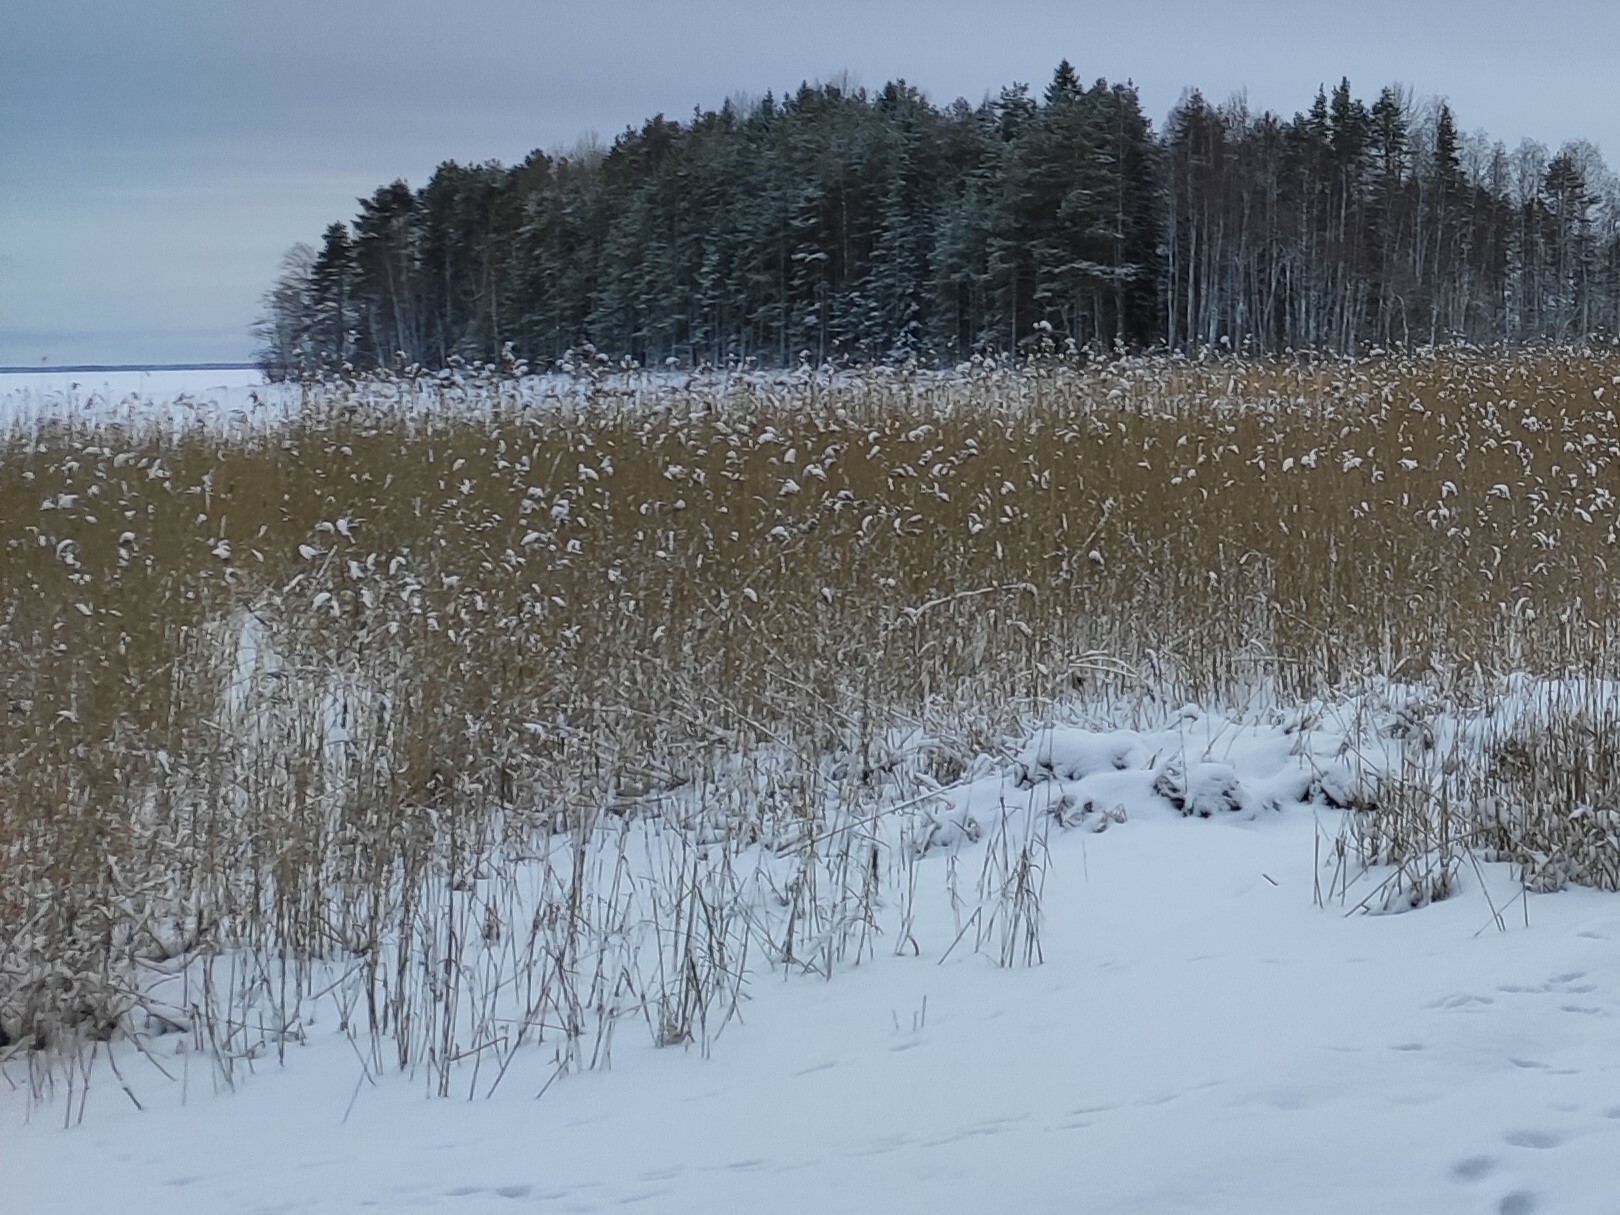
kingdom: Plantae
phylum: Tracheophyta
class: Liliopsida
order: Poales
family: Poaceae
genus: Phragmites
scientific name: Phragmites australis
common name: Common reed
